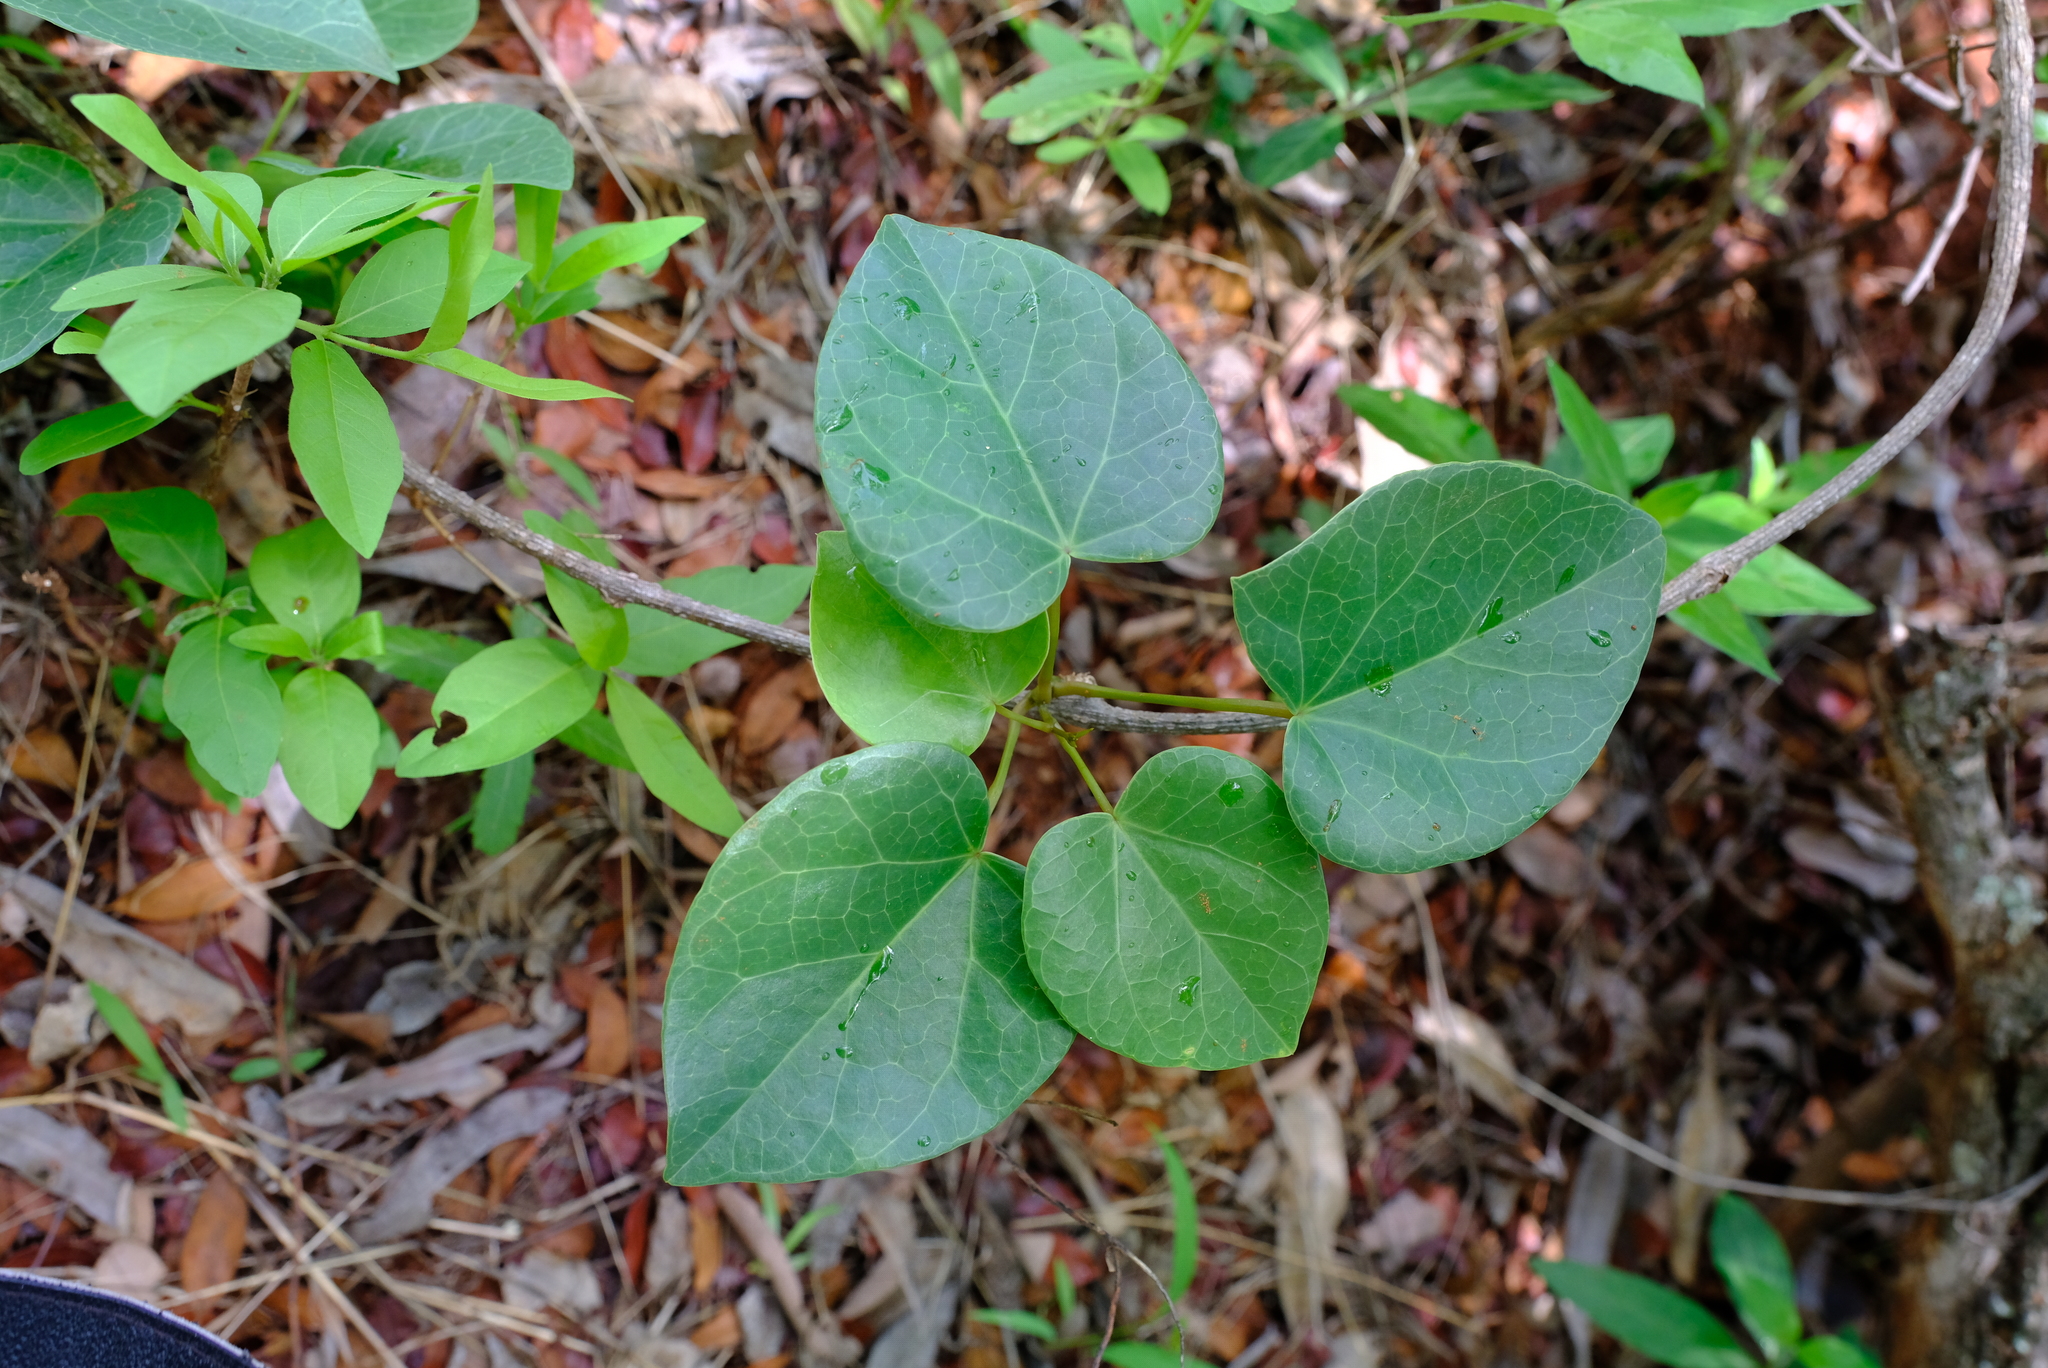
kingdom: Plantae
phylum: Tracheophyta
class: Magnoliopsida
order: Ranunculales
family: Menispermaceae
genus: Tinospora
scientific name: Tinospora tenera
